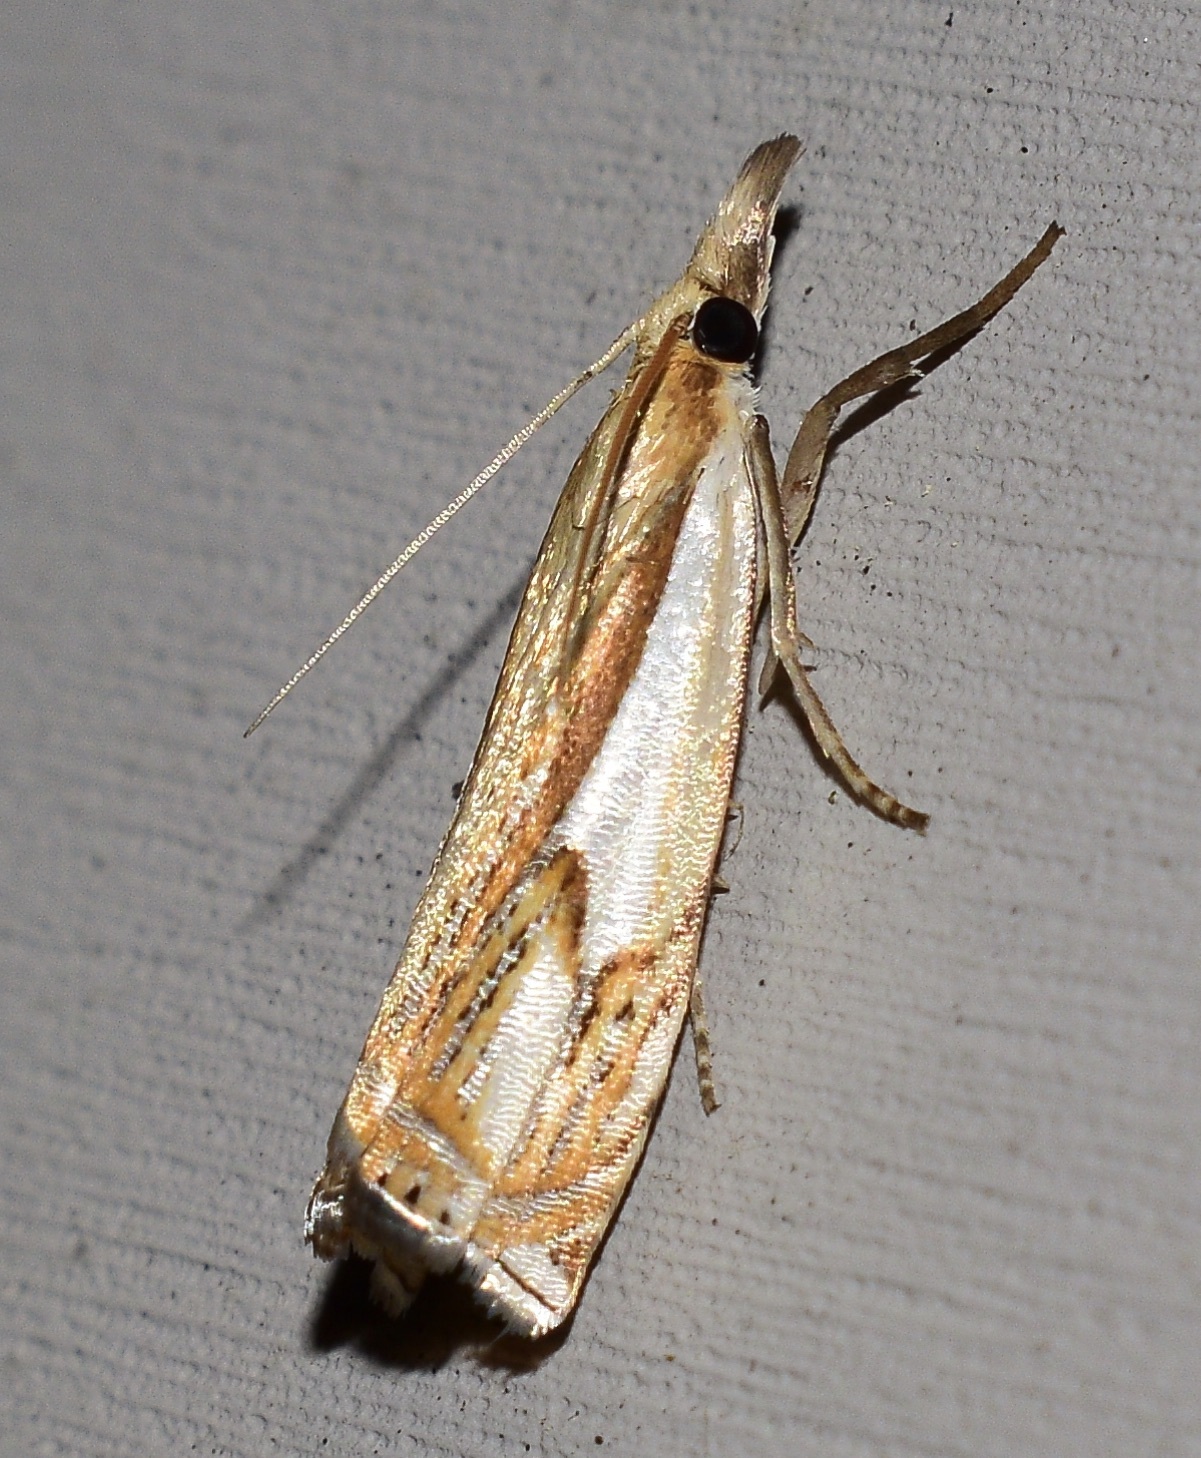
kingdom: Animalia
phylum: Arthropoda
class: Insecta
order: Lepidoptera
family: Crambidae
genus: Crambus
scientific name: Crambus agitatellus
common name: Double-banded grass-veneer
